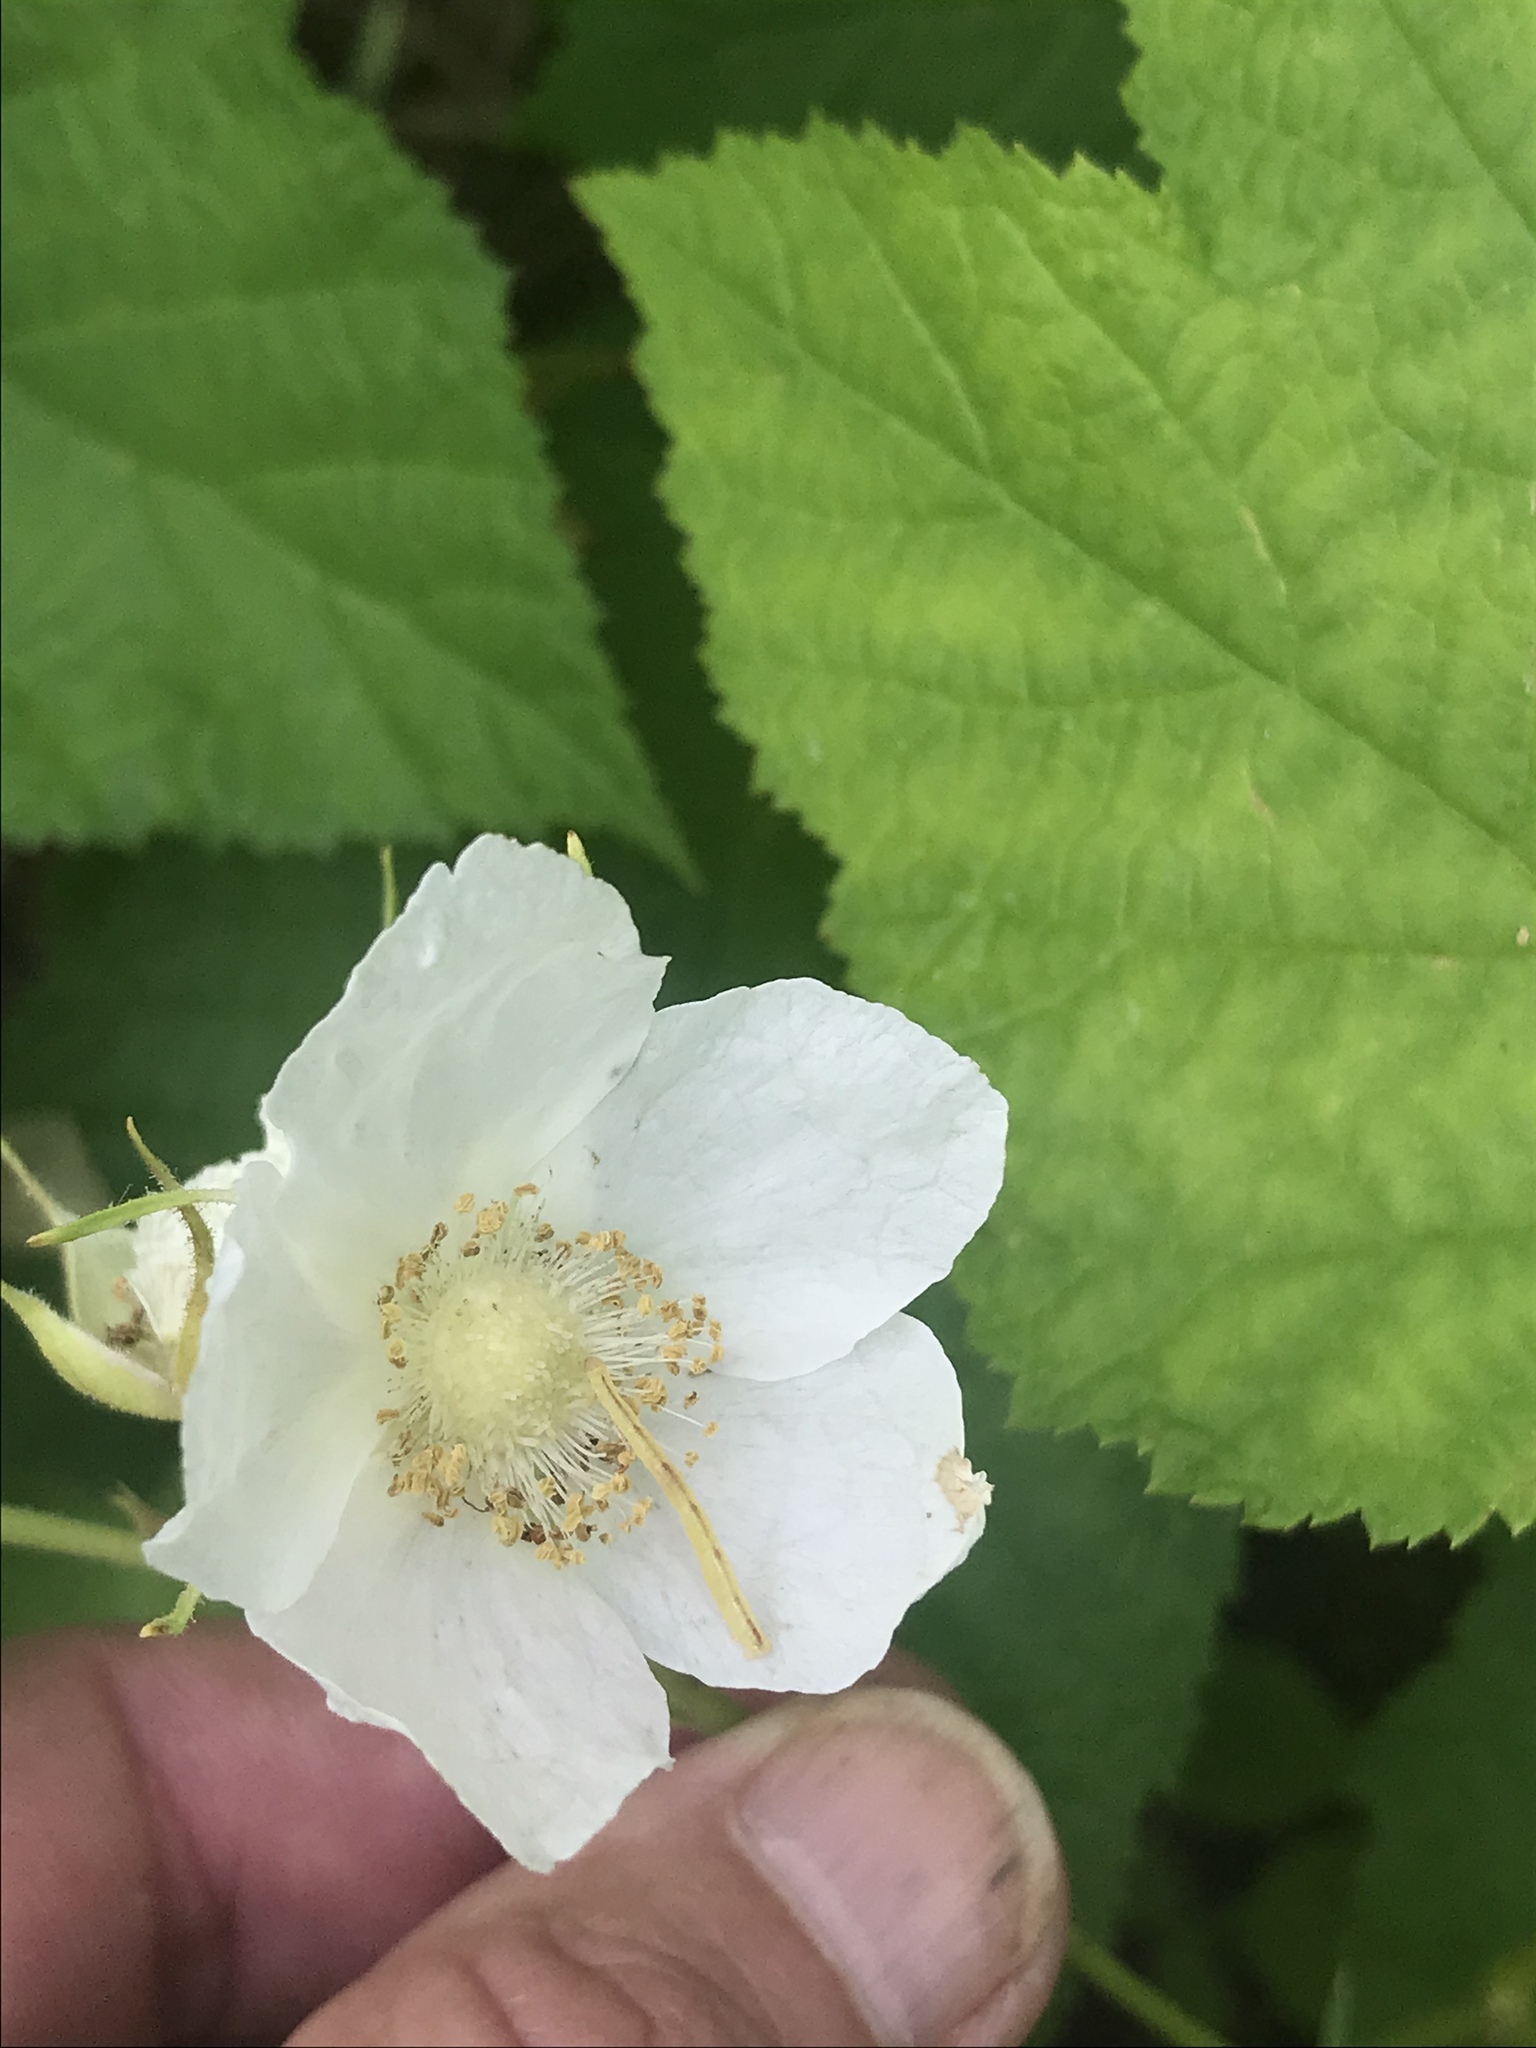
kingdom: Plantae
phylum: Tracheophyta
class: Magnoliopsida
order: Rosales
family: Rosaceae
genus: Rubus
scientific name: Rubus parviflorus
